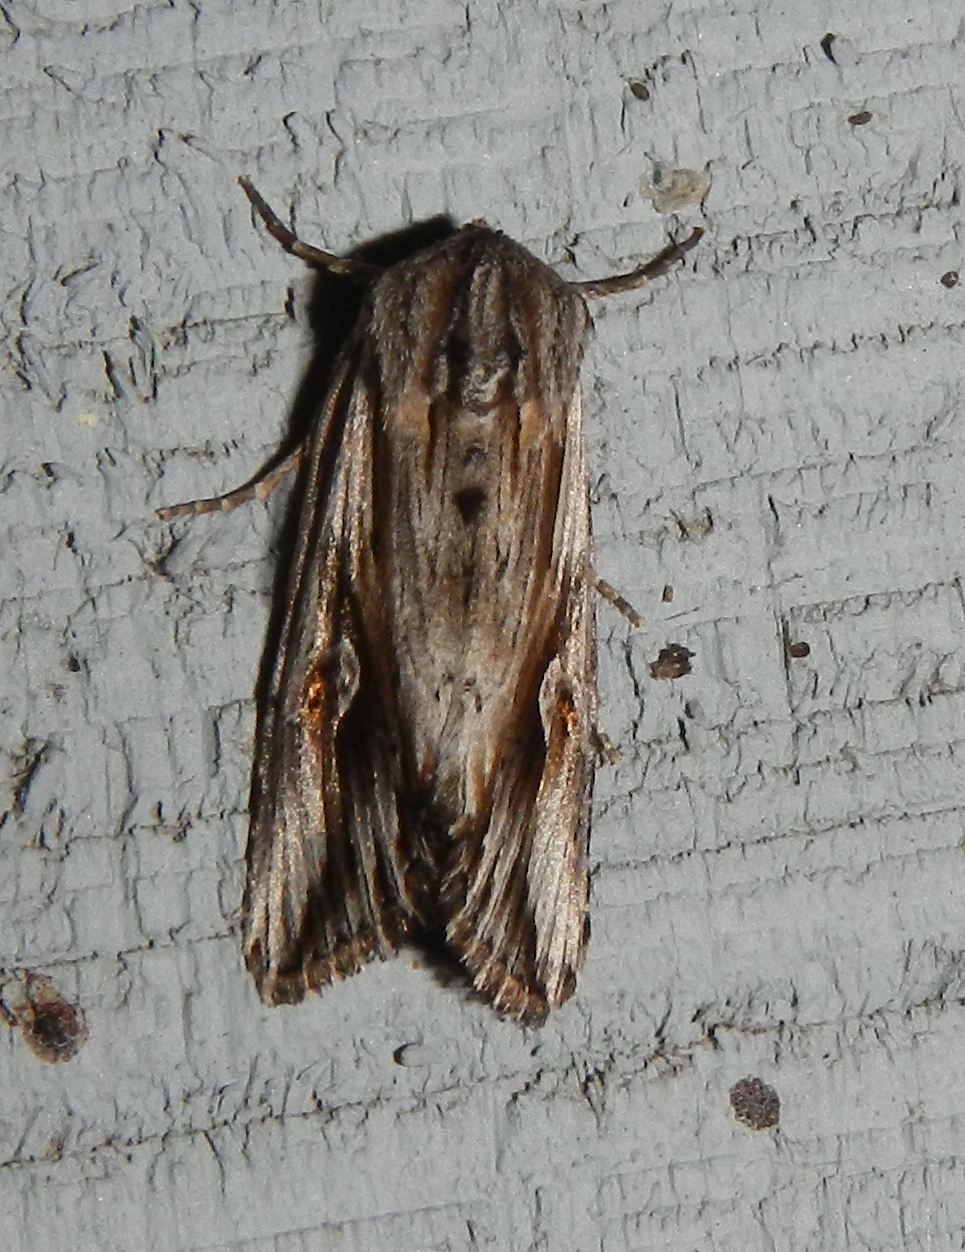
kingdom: Animalia
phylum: Arthropoda
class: Insecta
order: Lepidoptera
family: Noctuidae
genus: Nedra
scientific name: Nedra ramosula
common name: Gray half-spot
